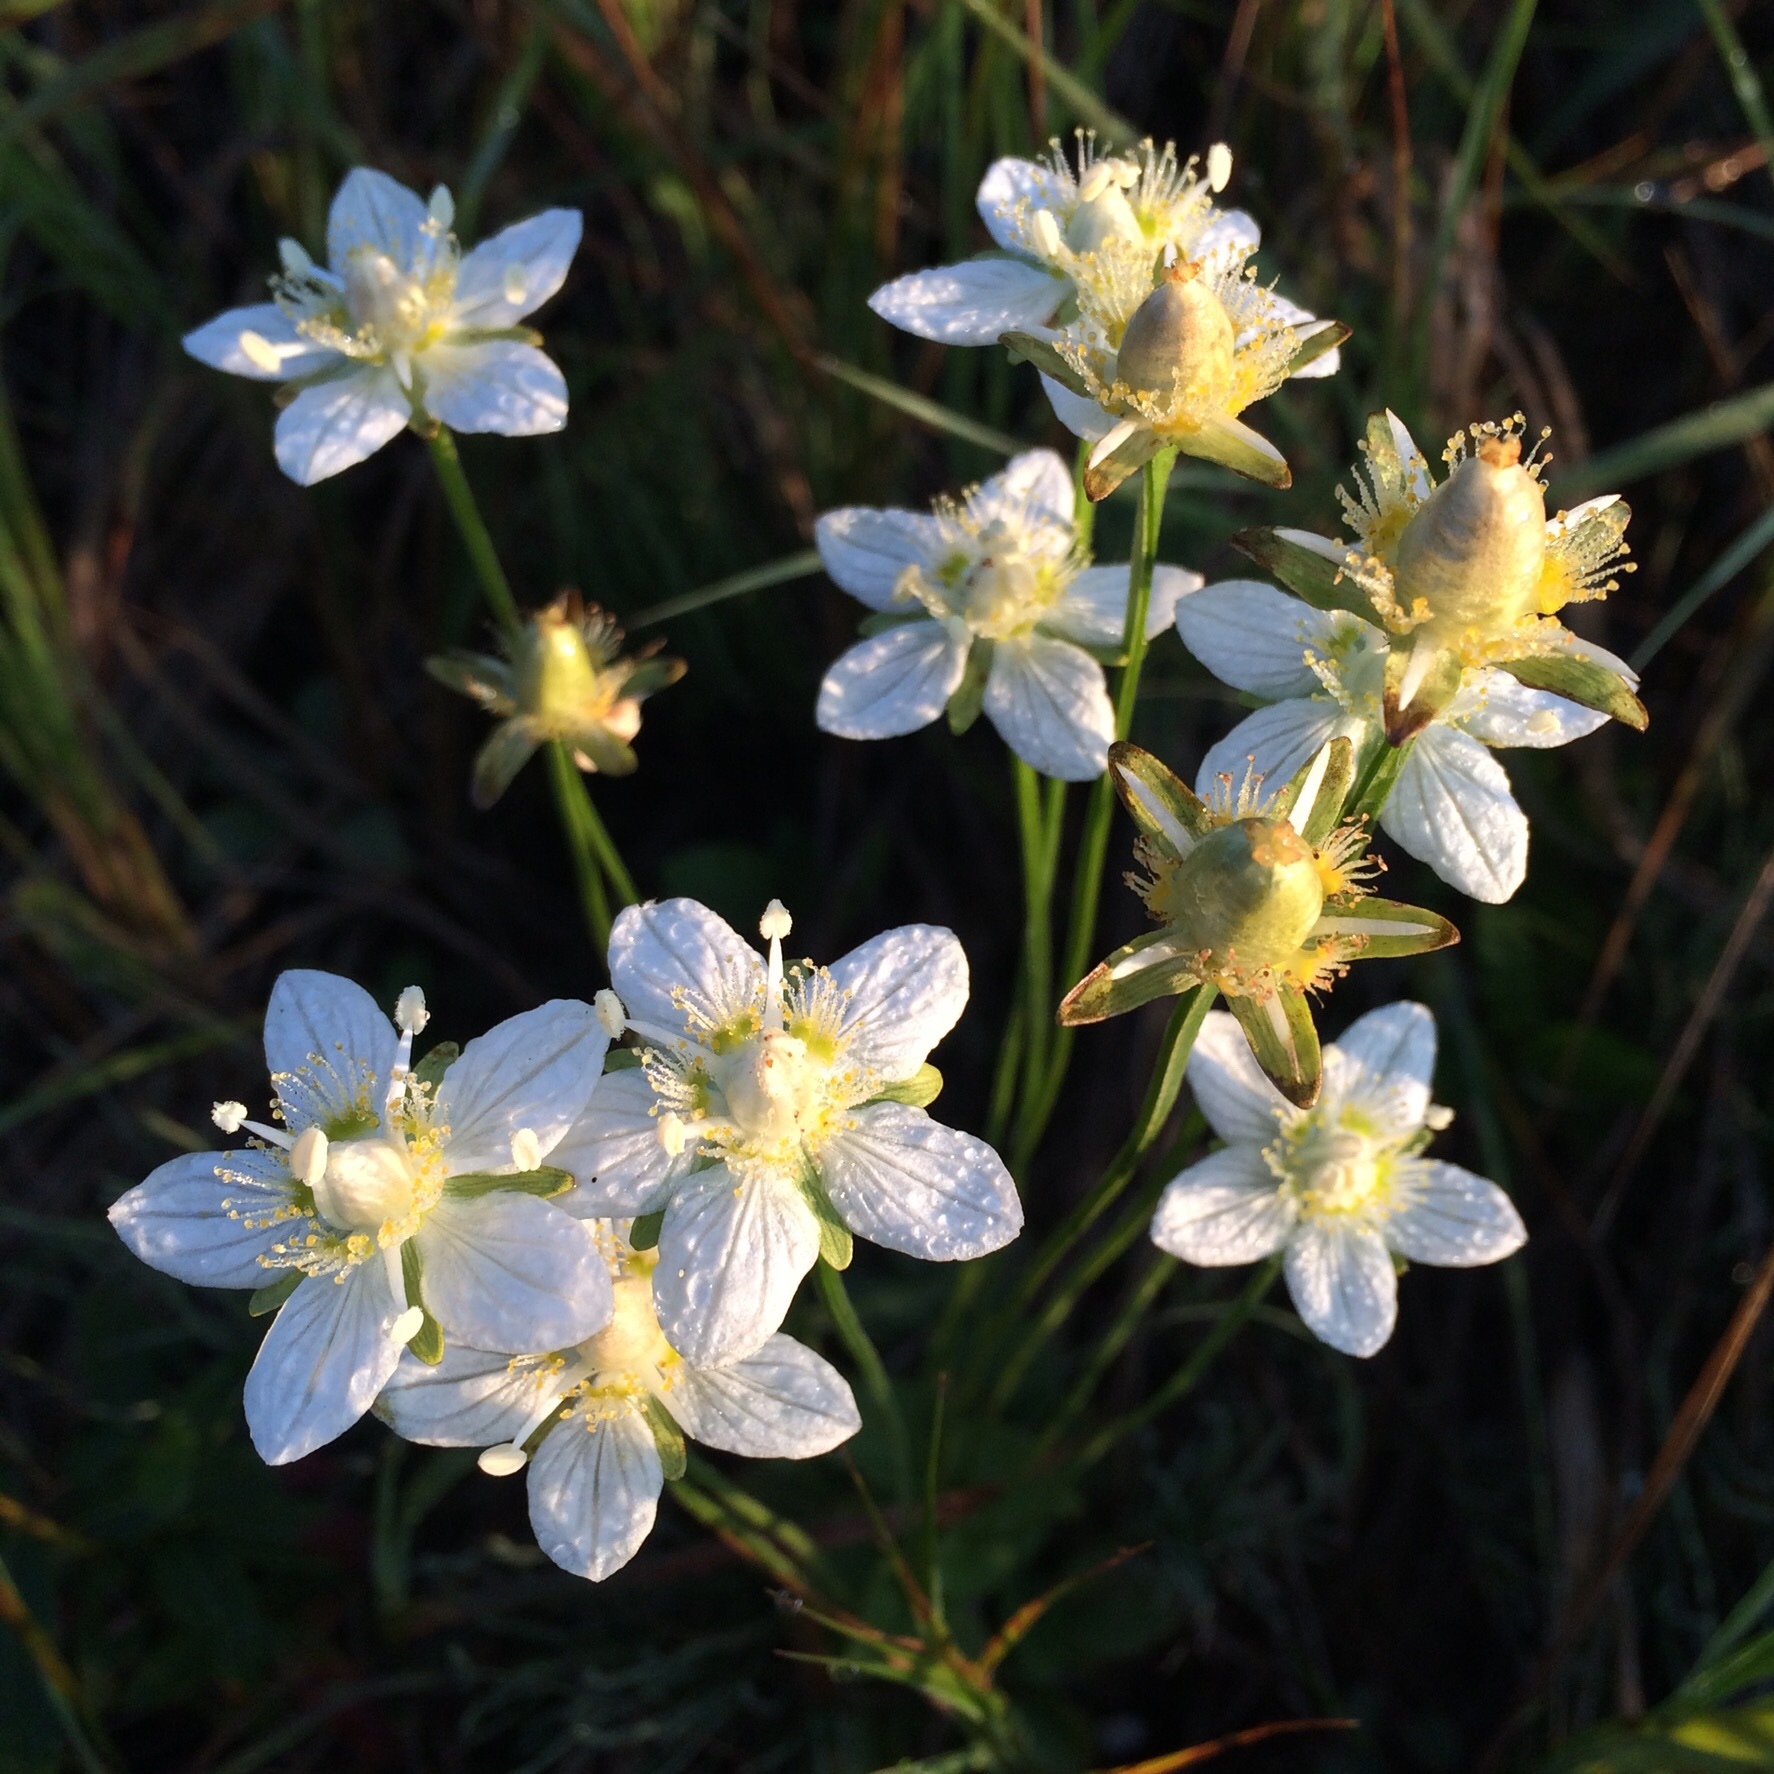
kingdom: Plantae
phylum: Tracheophyta
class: Magnoliopsida
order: Celastrales
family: Parnassiaceae
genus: Parnassia
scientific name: Parnassia palustris
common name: Grass-of-parnassus
